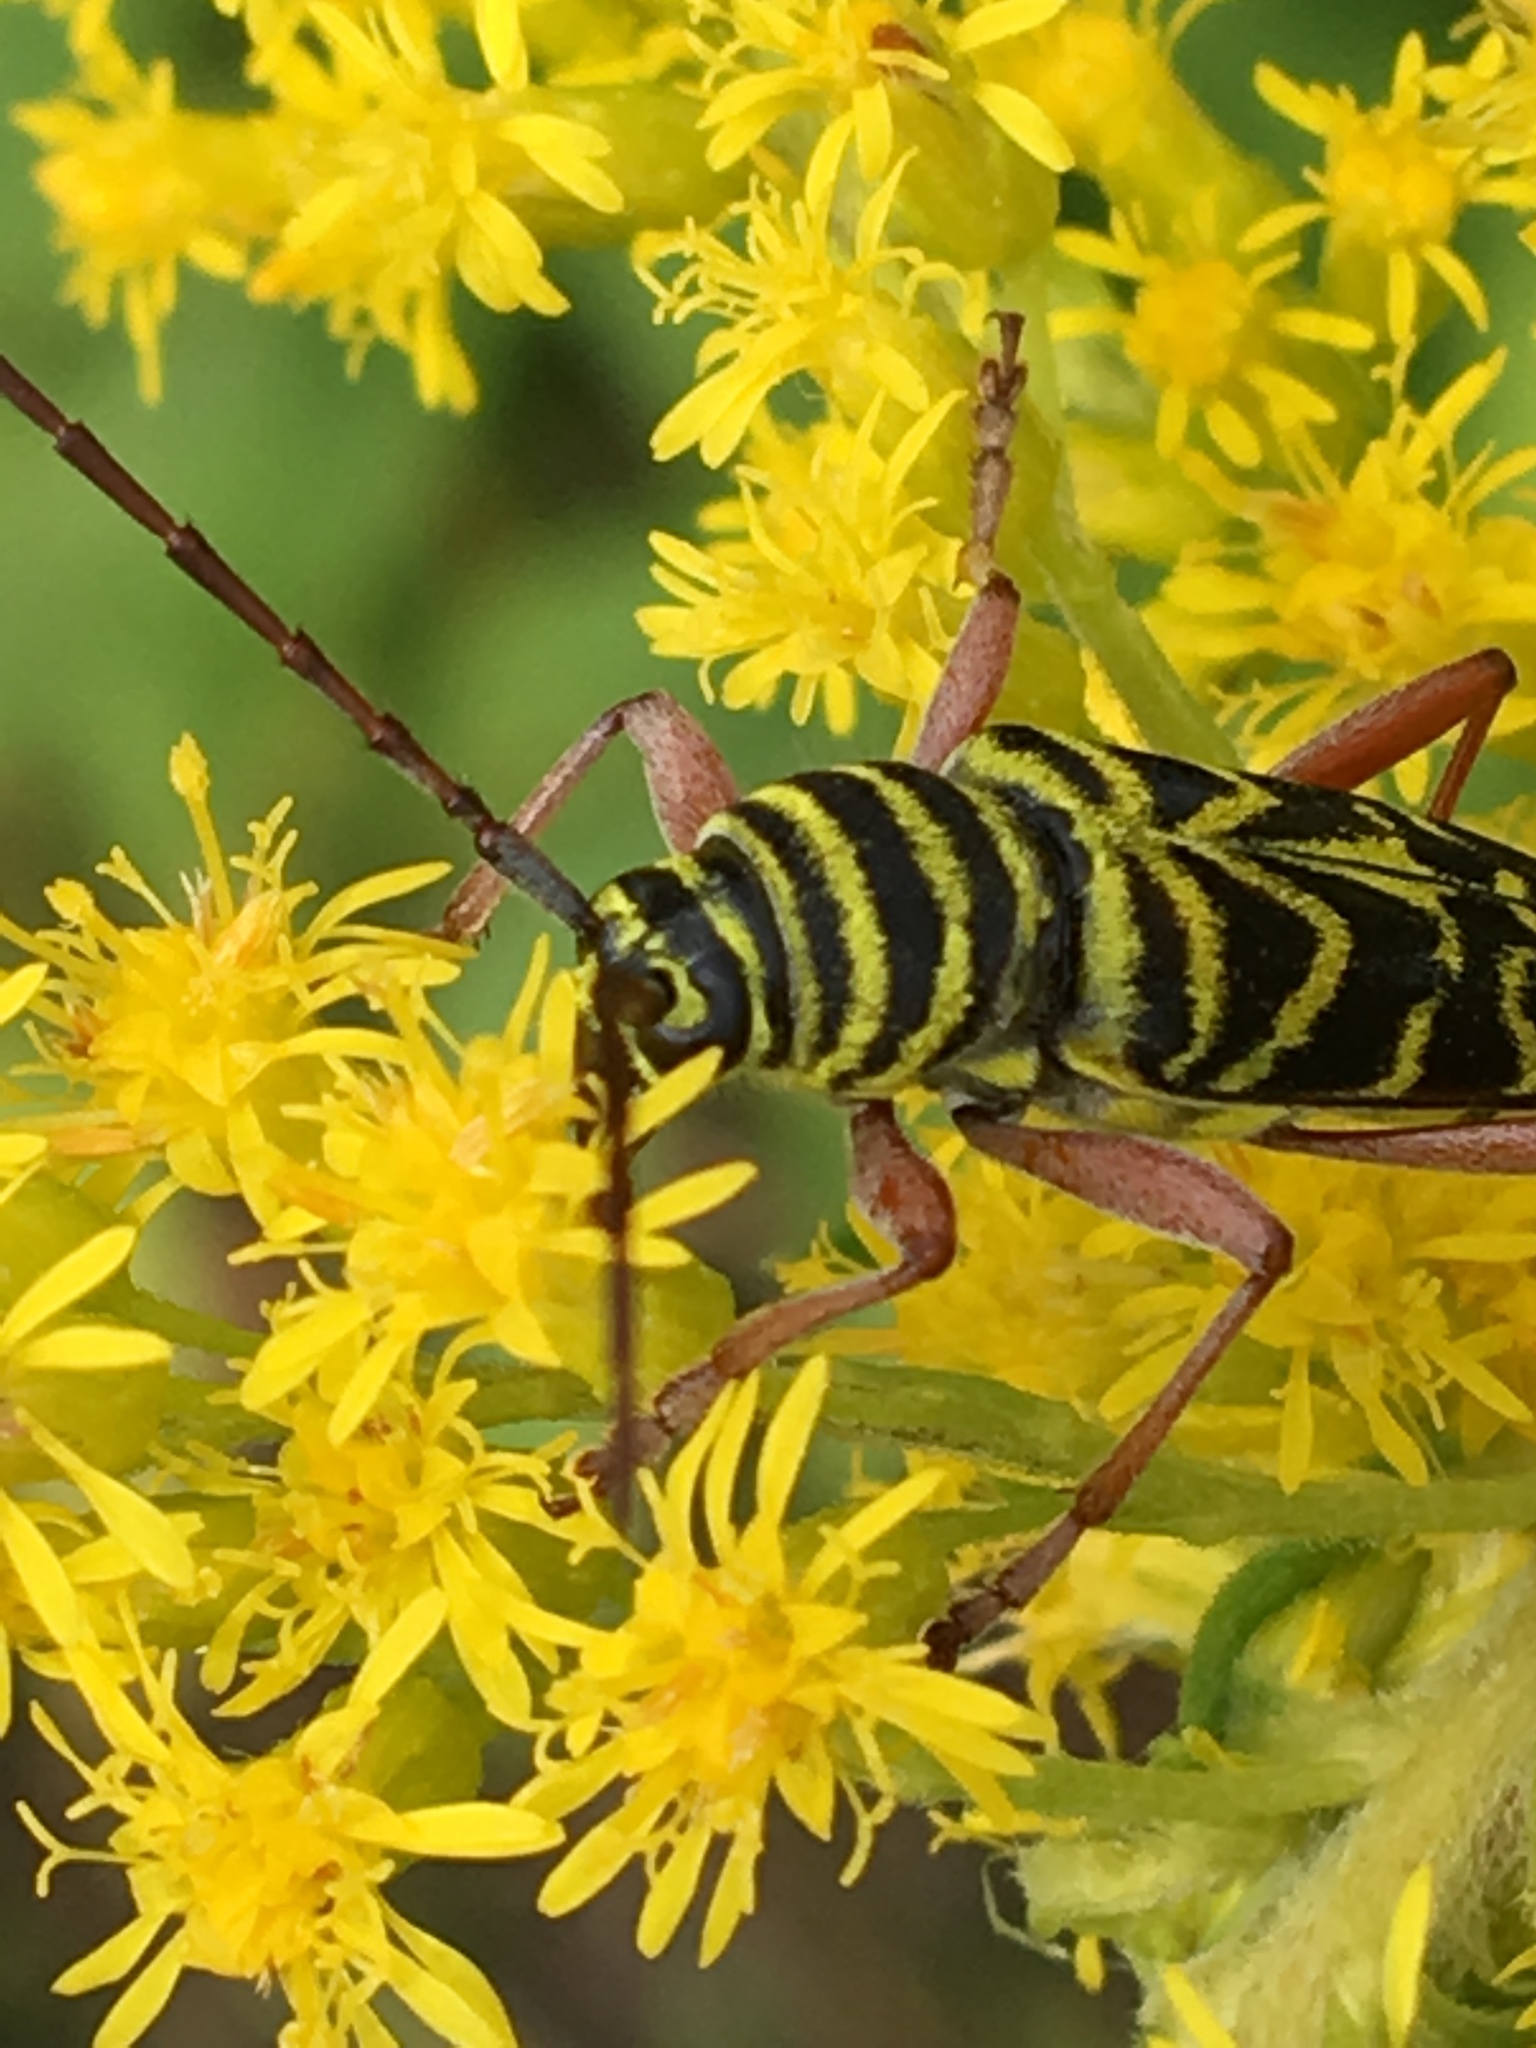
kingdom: Animalia
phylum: Arthropoda
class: Insecta
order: Coleoptera
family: Cerambycidae
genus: Megacyllene
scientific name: Megacyllene robiniae
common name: Locust borer
